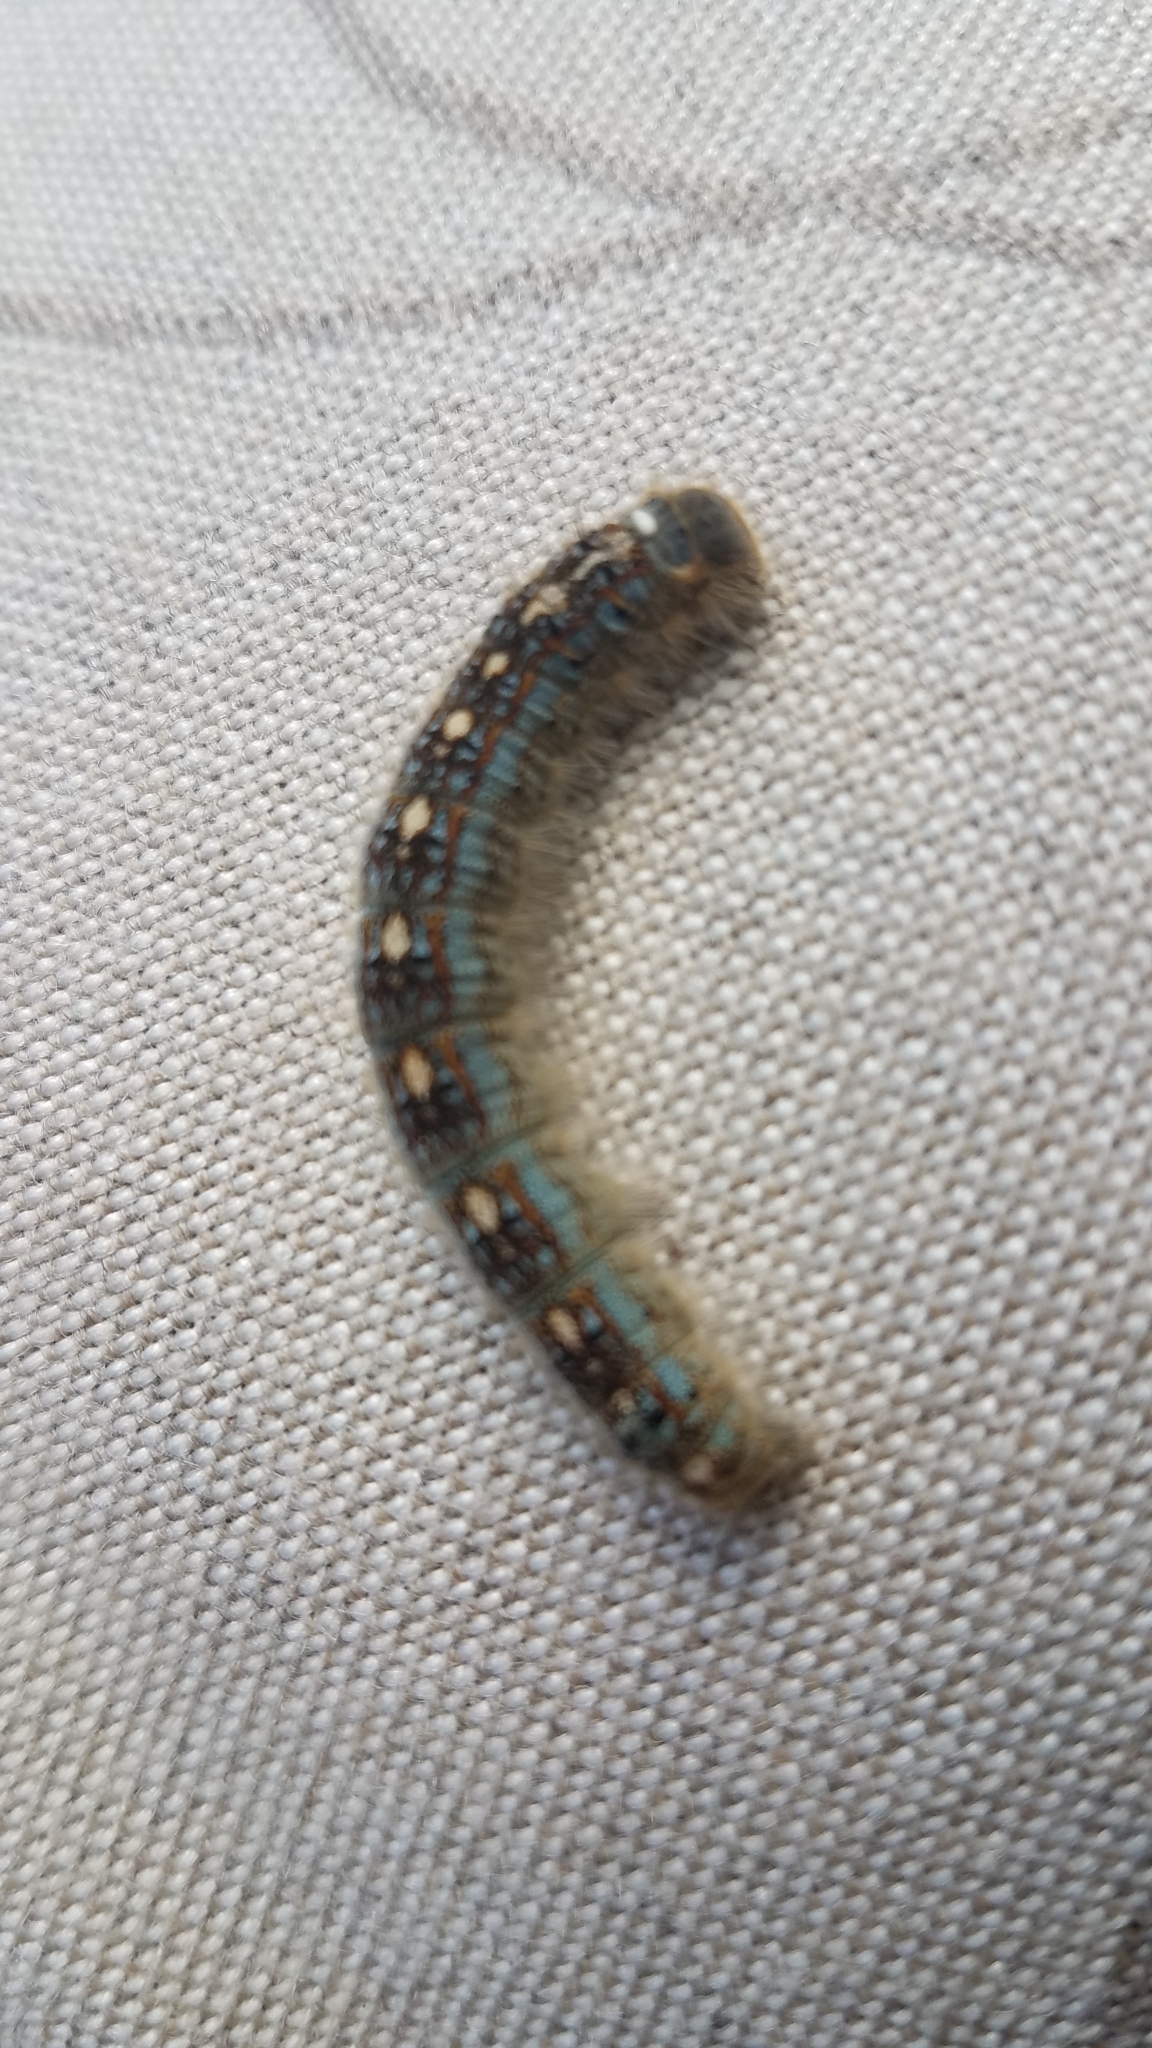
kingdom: Animalia
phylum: Arthropoda
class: Insecta
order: Lepidoptera
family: Lasiocampidae
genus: Malacosoma
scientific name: Malacosoma disstria
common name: Forest tent caterpillar
